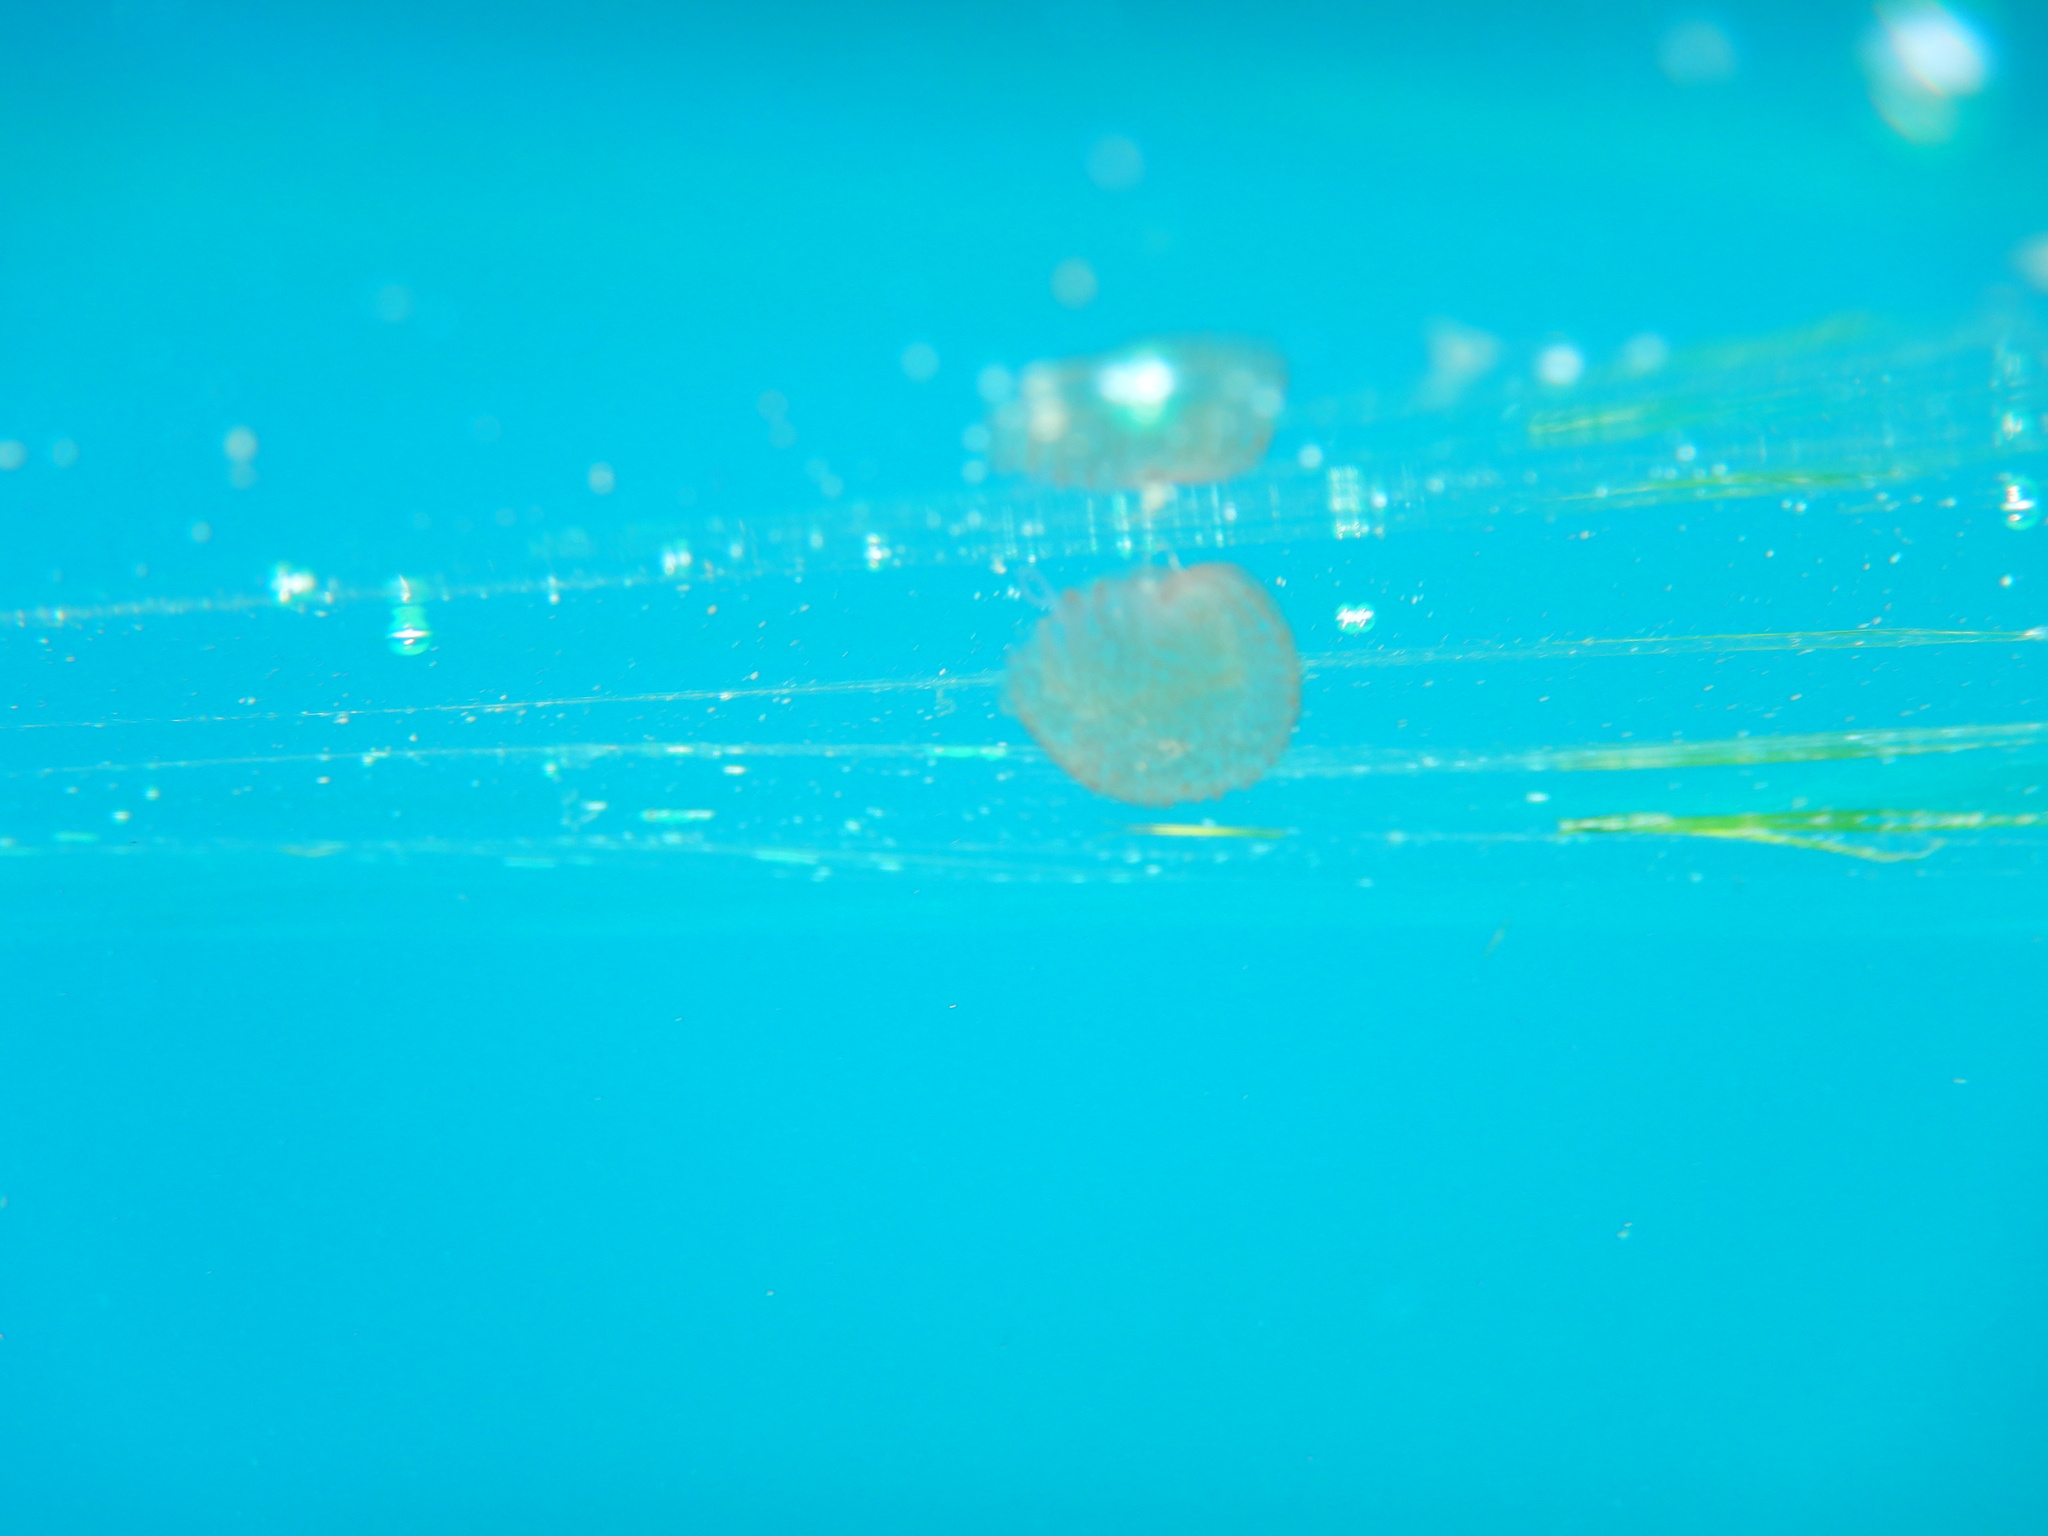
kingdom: Animalia
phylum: Cnidaria
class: Scyphozoa
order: Semaeostomeae
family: Pelagiidae
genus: Pelagia
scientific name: Pelagia noctiluca
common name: Mauve stinger
